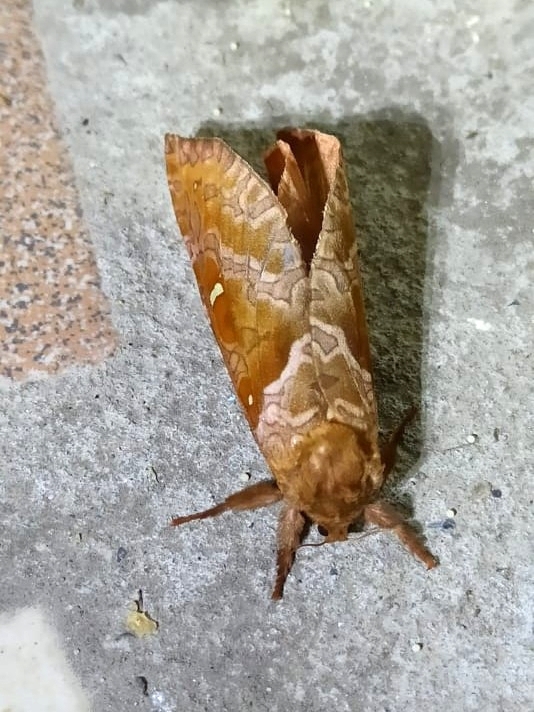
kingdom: Animalia
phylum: Arthropoda
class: Insecta
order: Lepidoptera
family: Hepialidae
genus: Zenophassus
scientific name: Zenophassus schamyl
